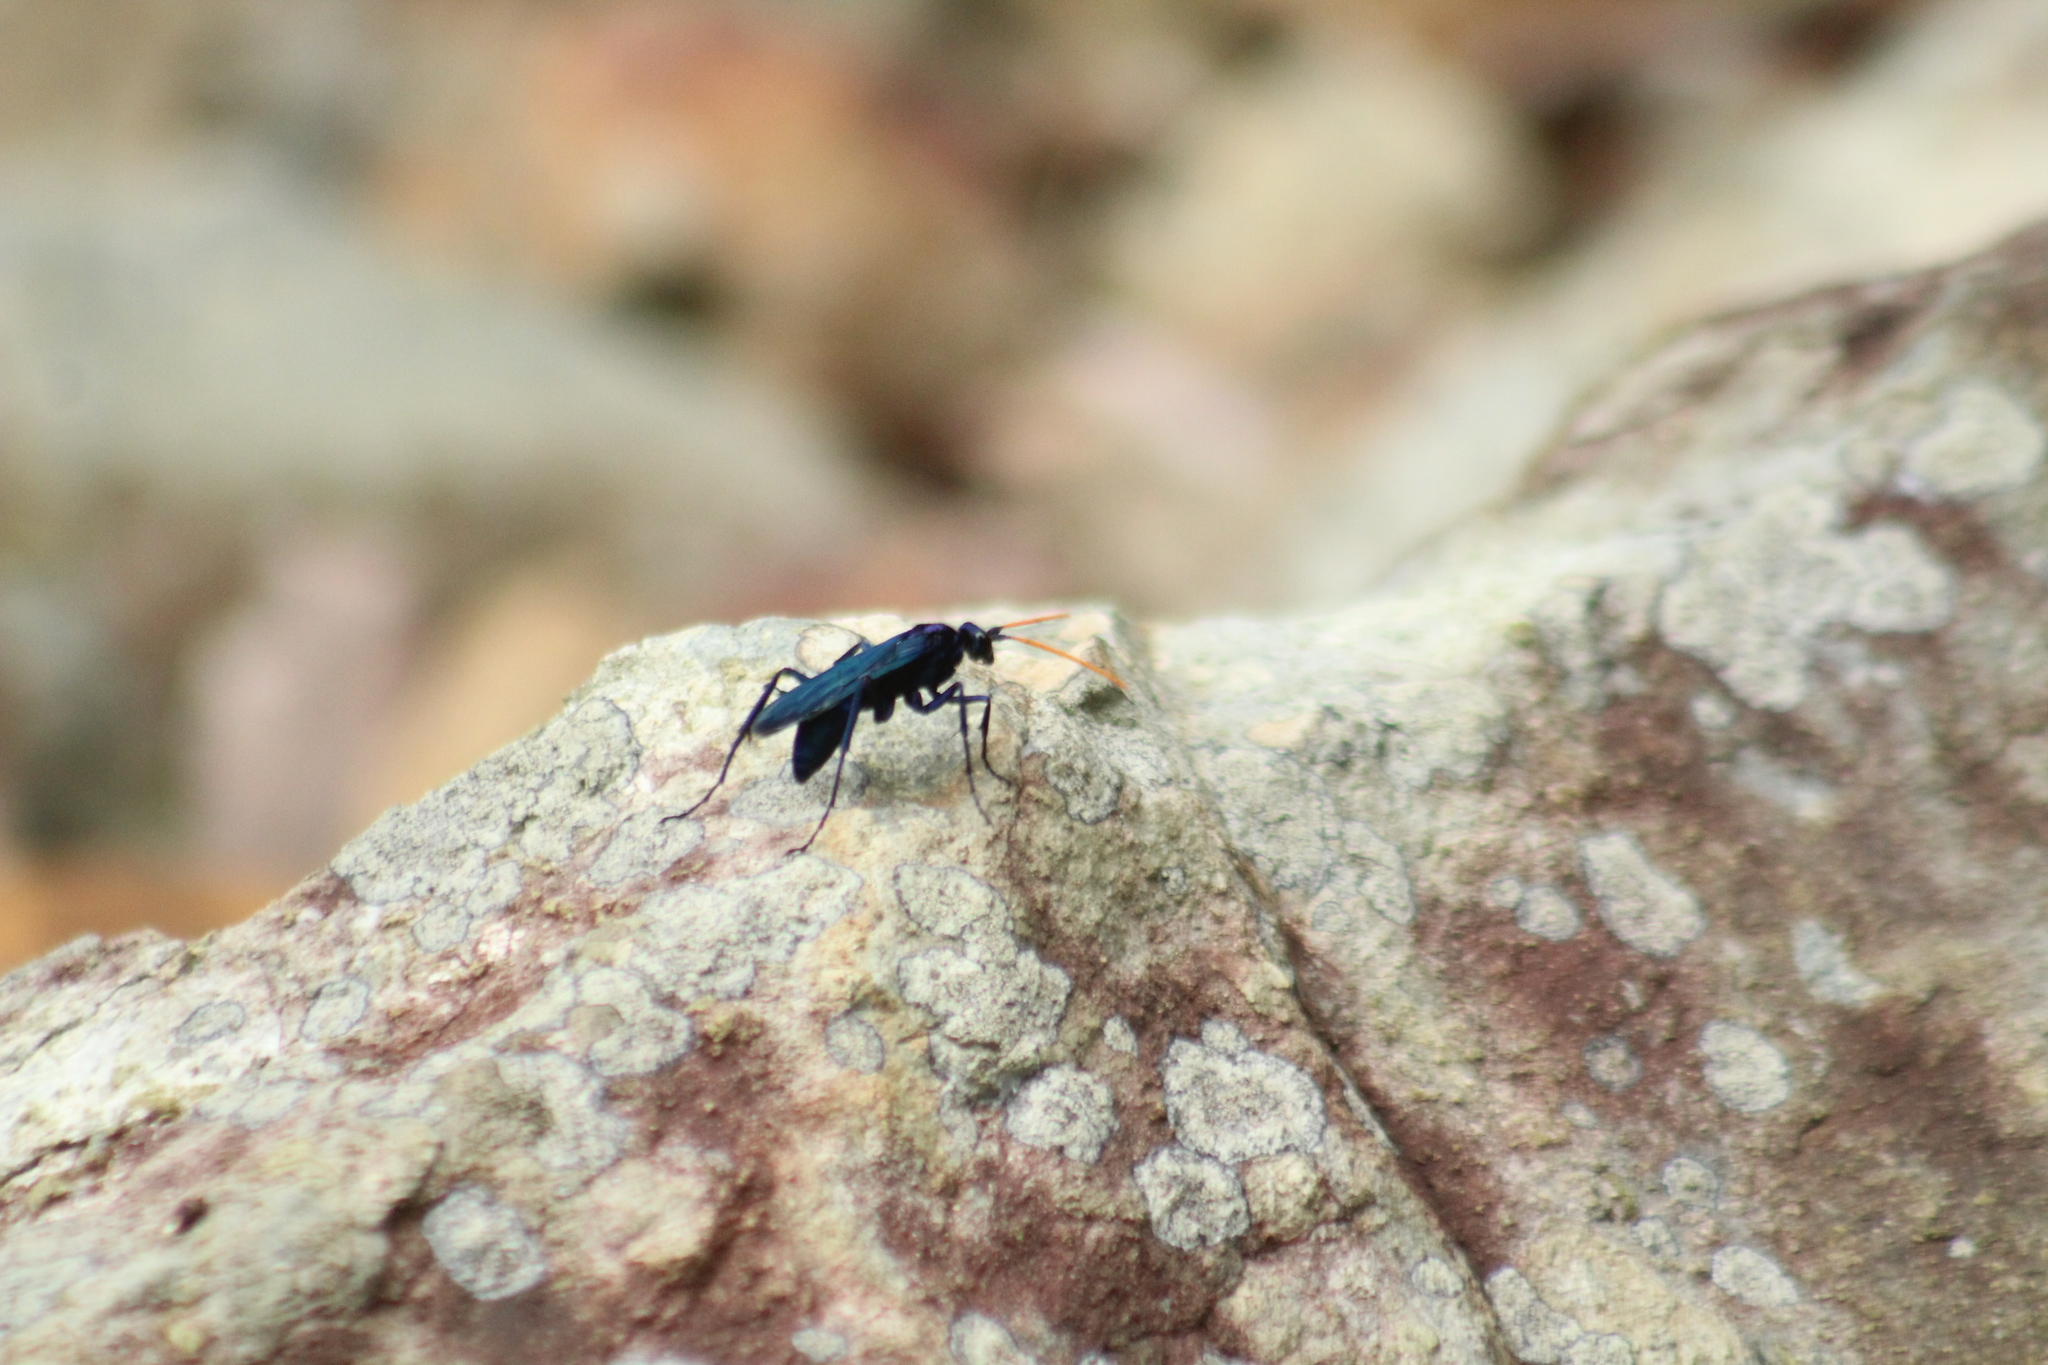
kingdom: Animalia
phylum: Arthropoda
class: Insecta
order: Hymenoptera
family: Pompilidae
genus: Pepsis
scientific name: Pepsis ruficornis
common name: Orange-horned tarantula hawk
